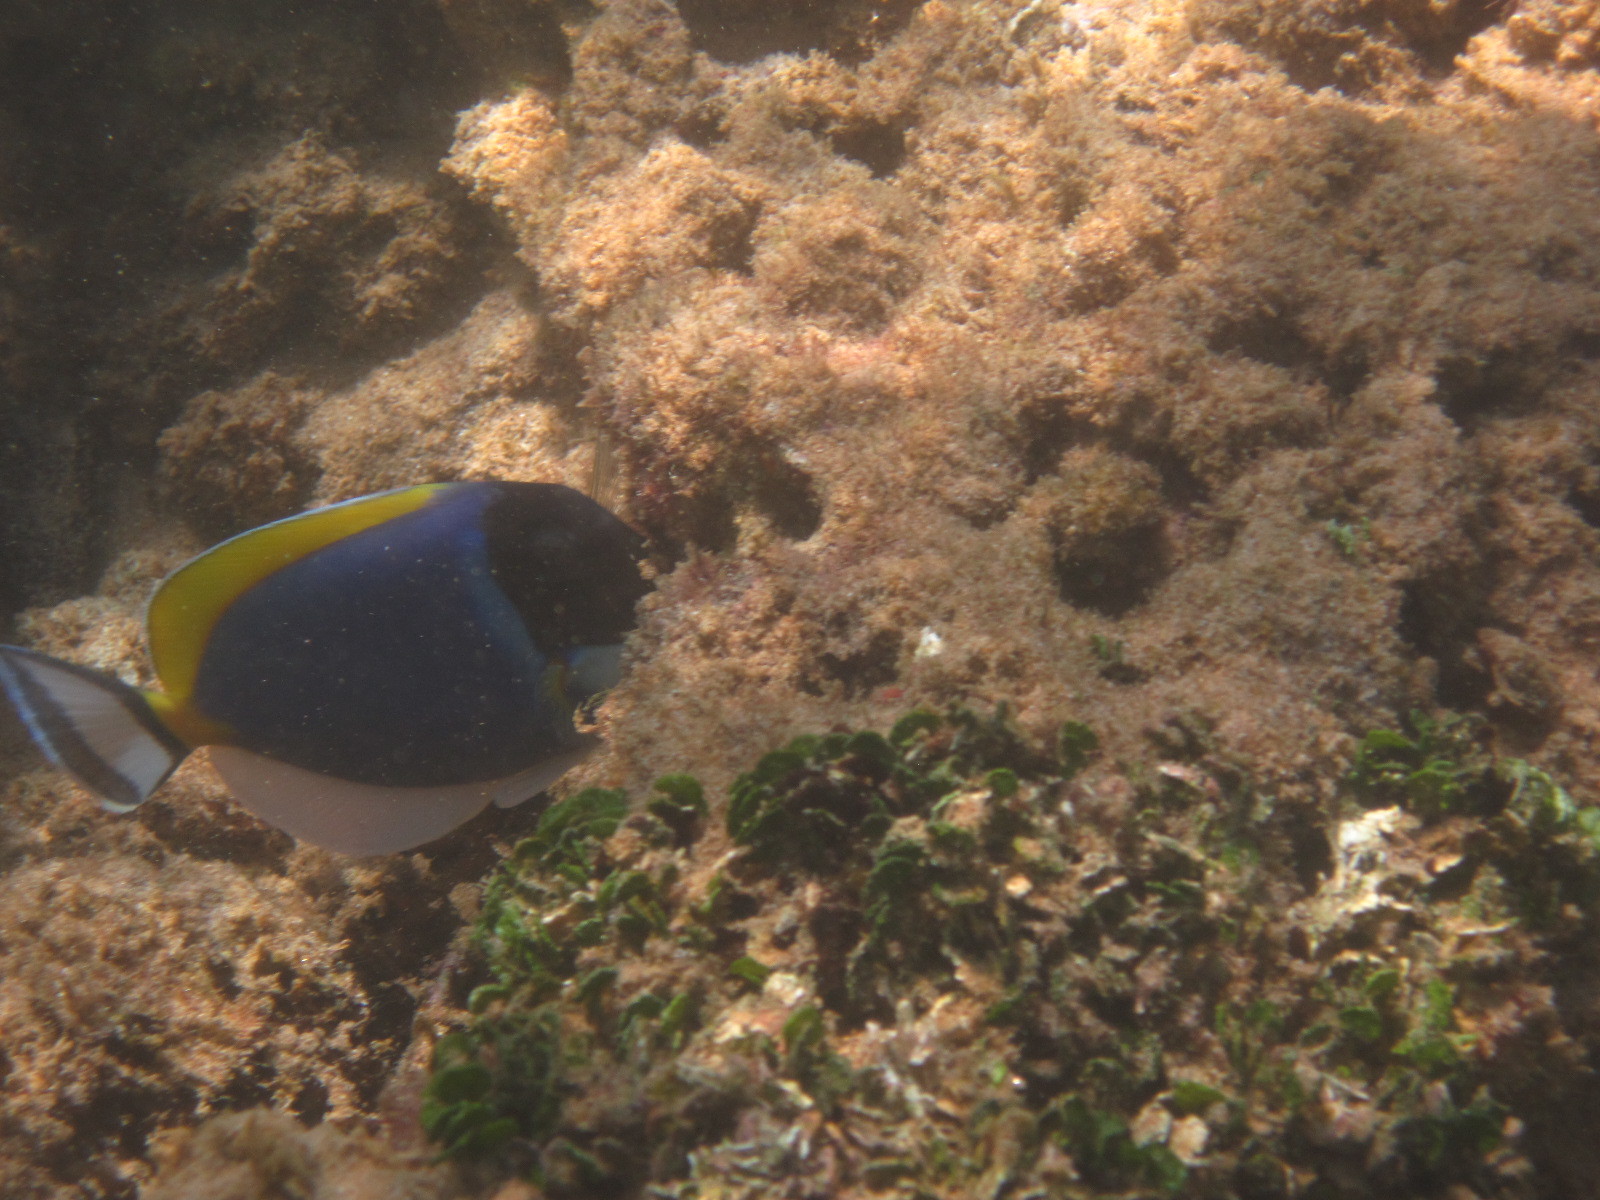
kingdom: Animalia
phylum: Chordata
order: Perciformes
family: Acanthuridae
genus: Acanthurus
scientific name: Acanthurus leucosternon
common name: Blue surgeonfish
